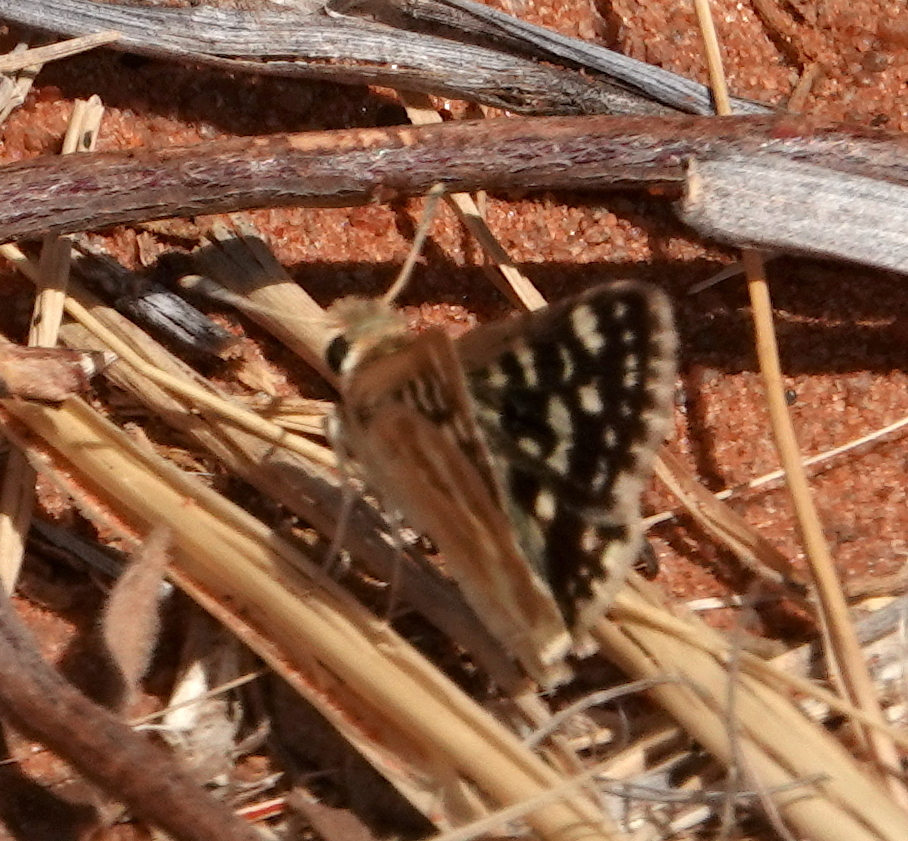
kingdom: Animalia
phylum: Arthropoda
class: Insecta
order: Lepidoptera
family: Hesperiidae
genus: Spialia
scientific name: Spialia spio
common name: Mountain sandman
